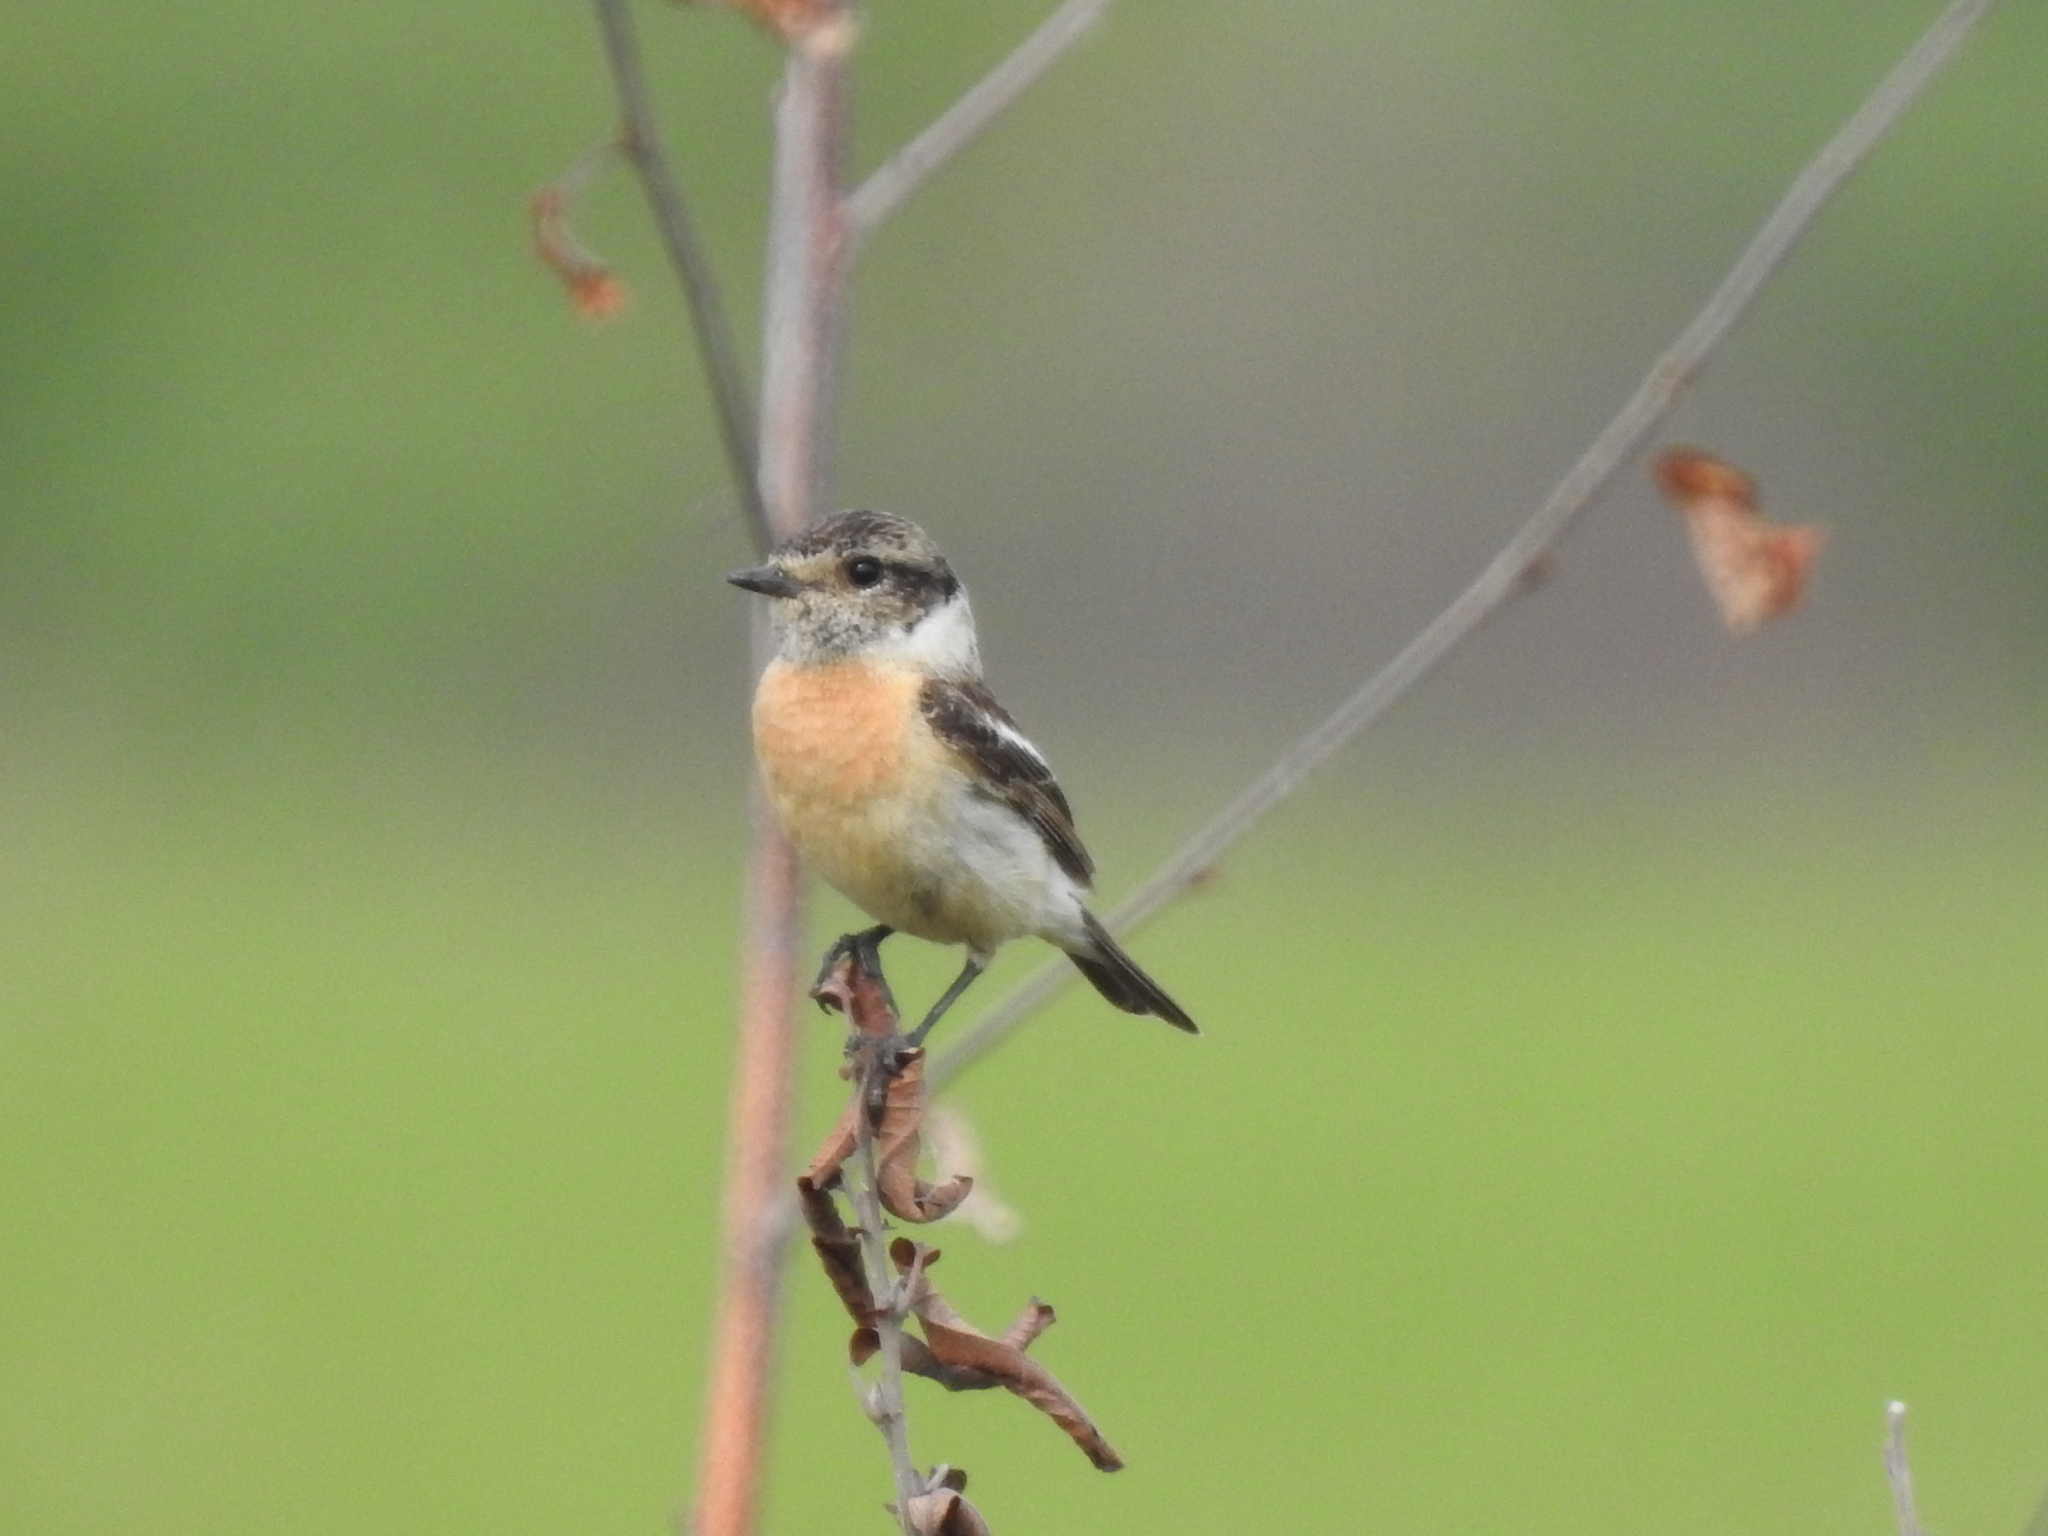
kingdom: Animalia
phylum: Chordata
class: Aves
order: Passeriformes
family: Muscicapidae
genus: Saxicola
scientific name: Saxicola maurus
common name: Siberian stonechat
